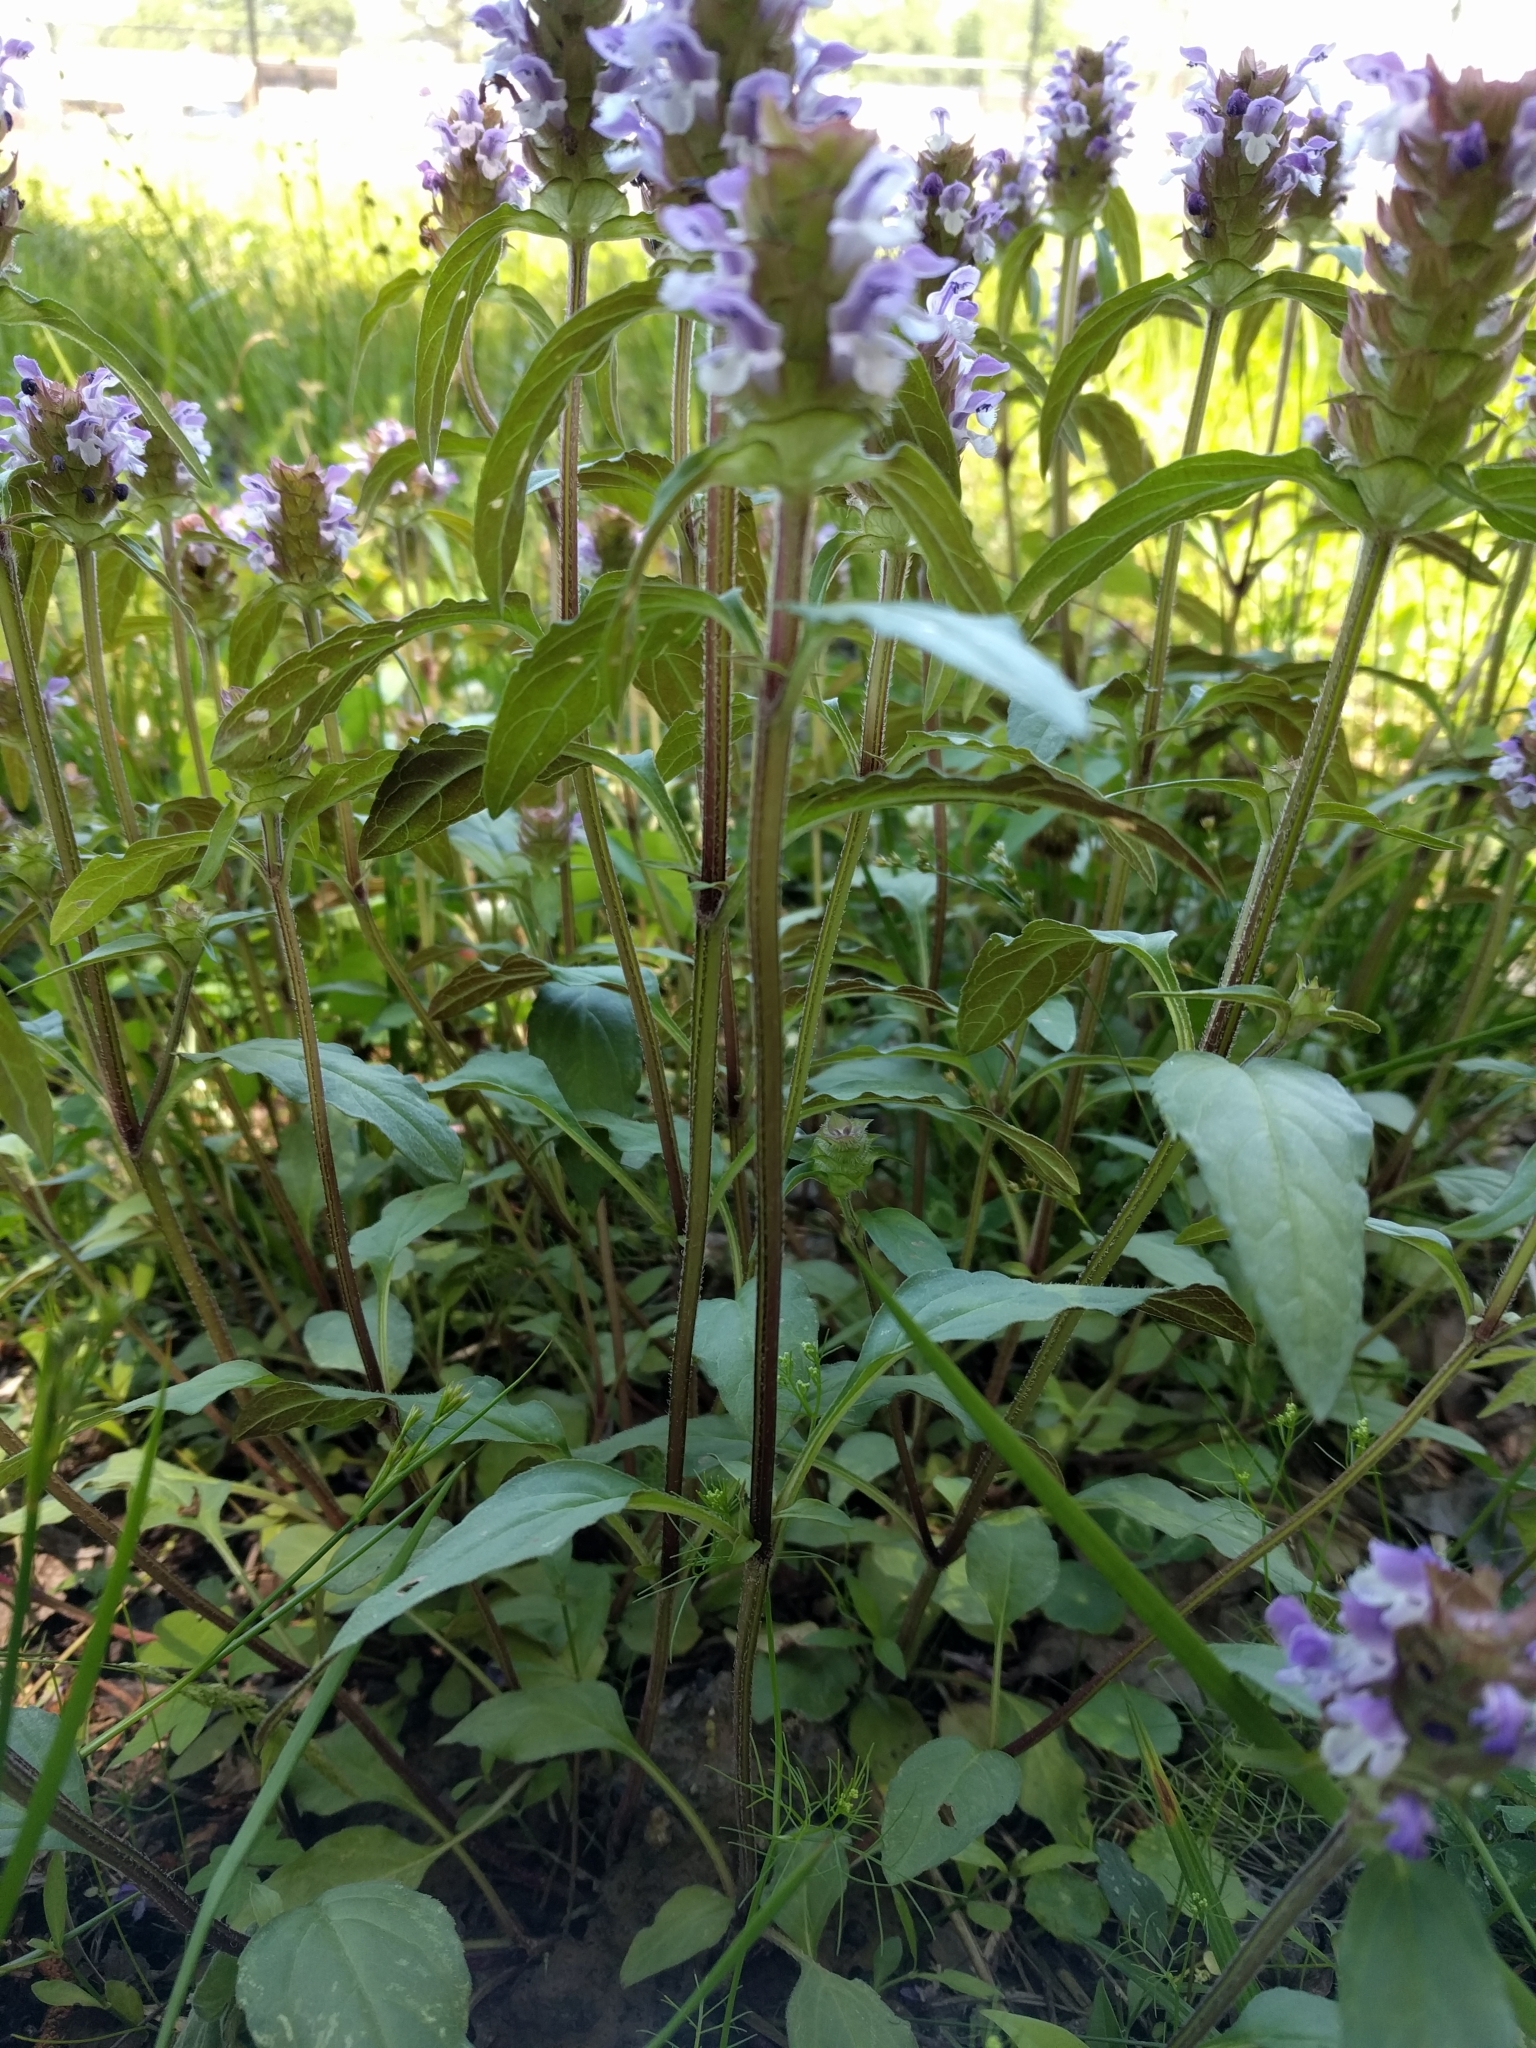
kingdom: Plantae
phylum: Tracheophyta
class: Magnoliopsida
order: Lamiales
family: Lamiaceae
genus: Prunella
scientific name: Prunella vulgaris
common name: Heal-all
